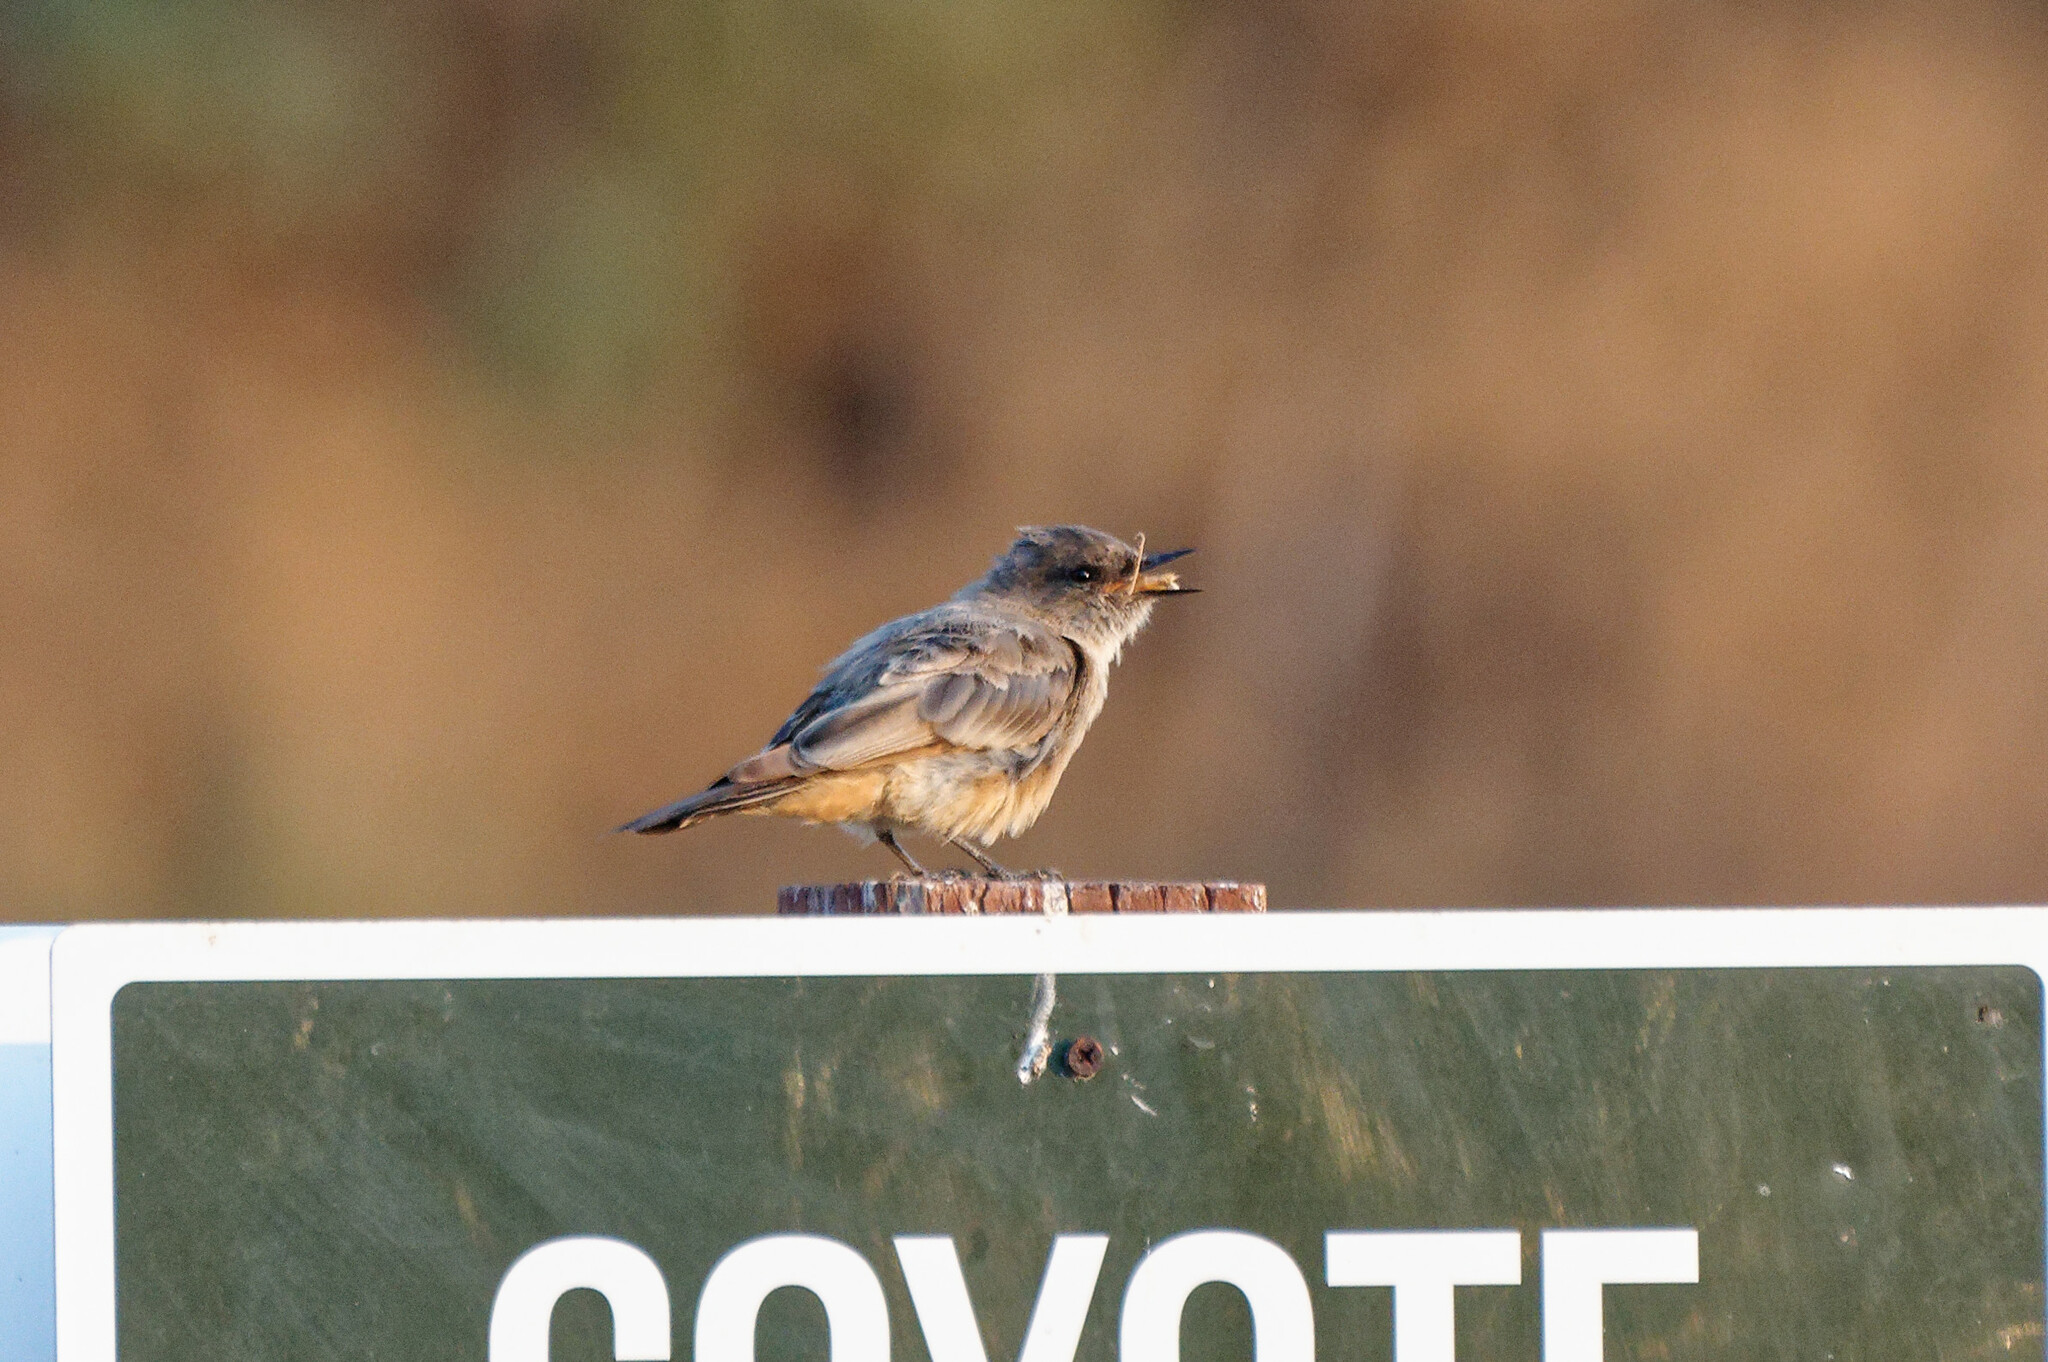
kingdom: Animalia
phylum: Chordata
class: Aves
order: Passeriformes
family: Tyrannidae
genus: Sayornis
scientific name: Sayornis saya
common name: Say's phoebe
